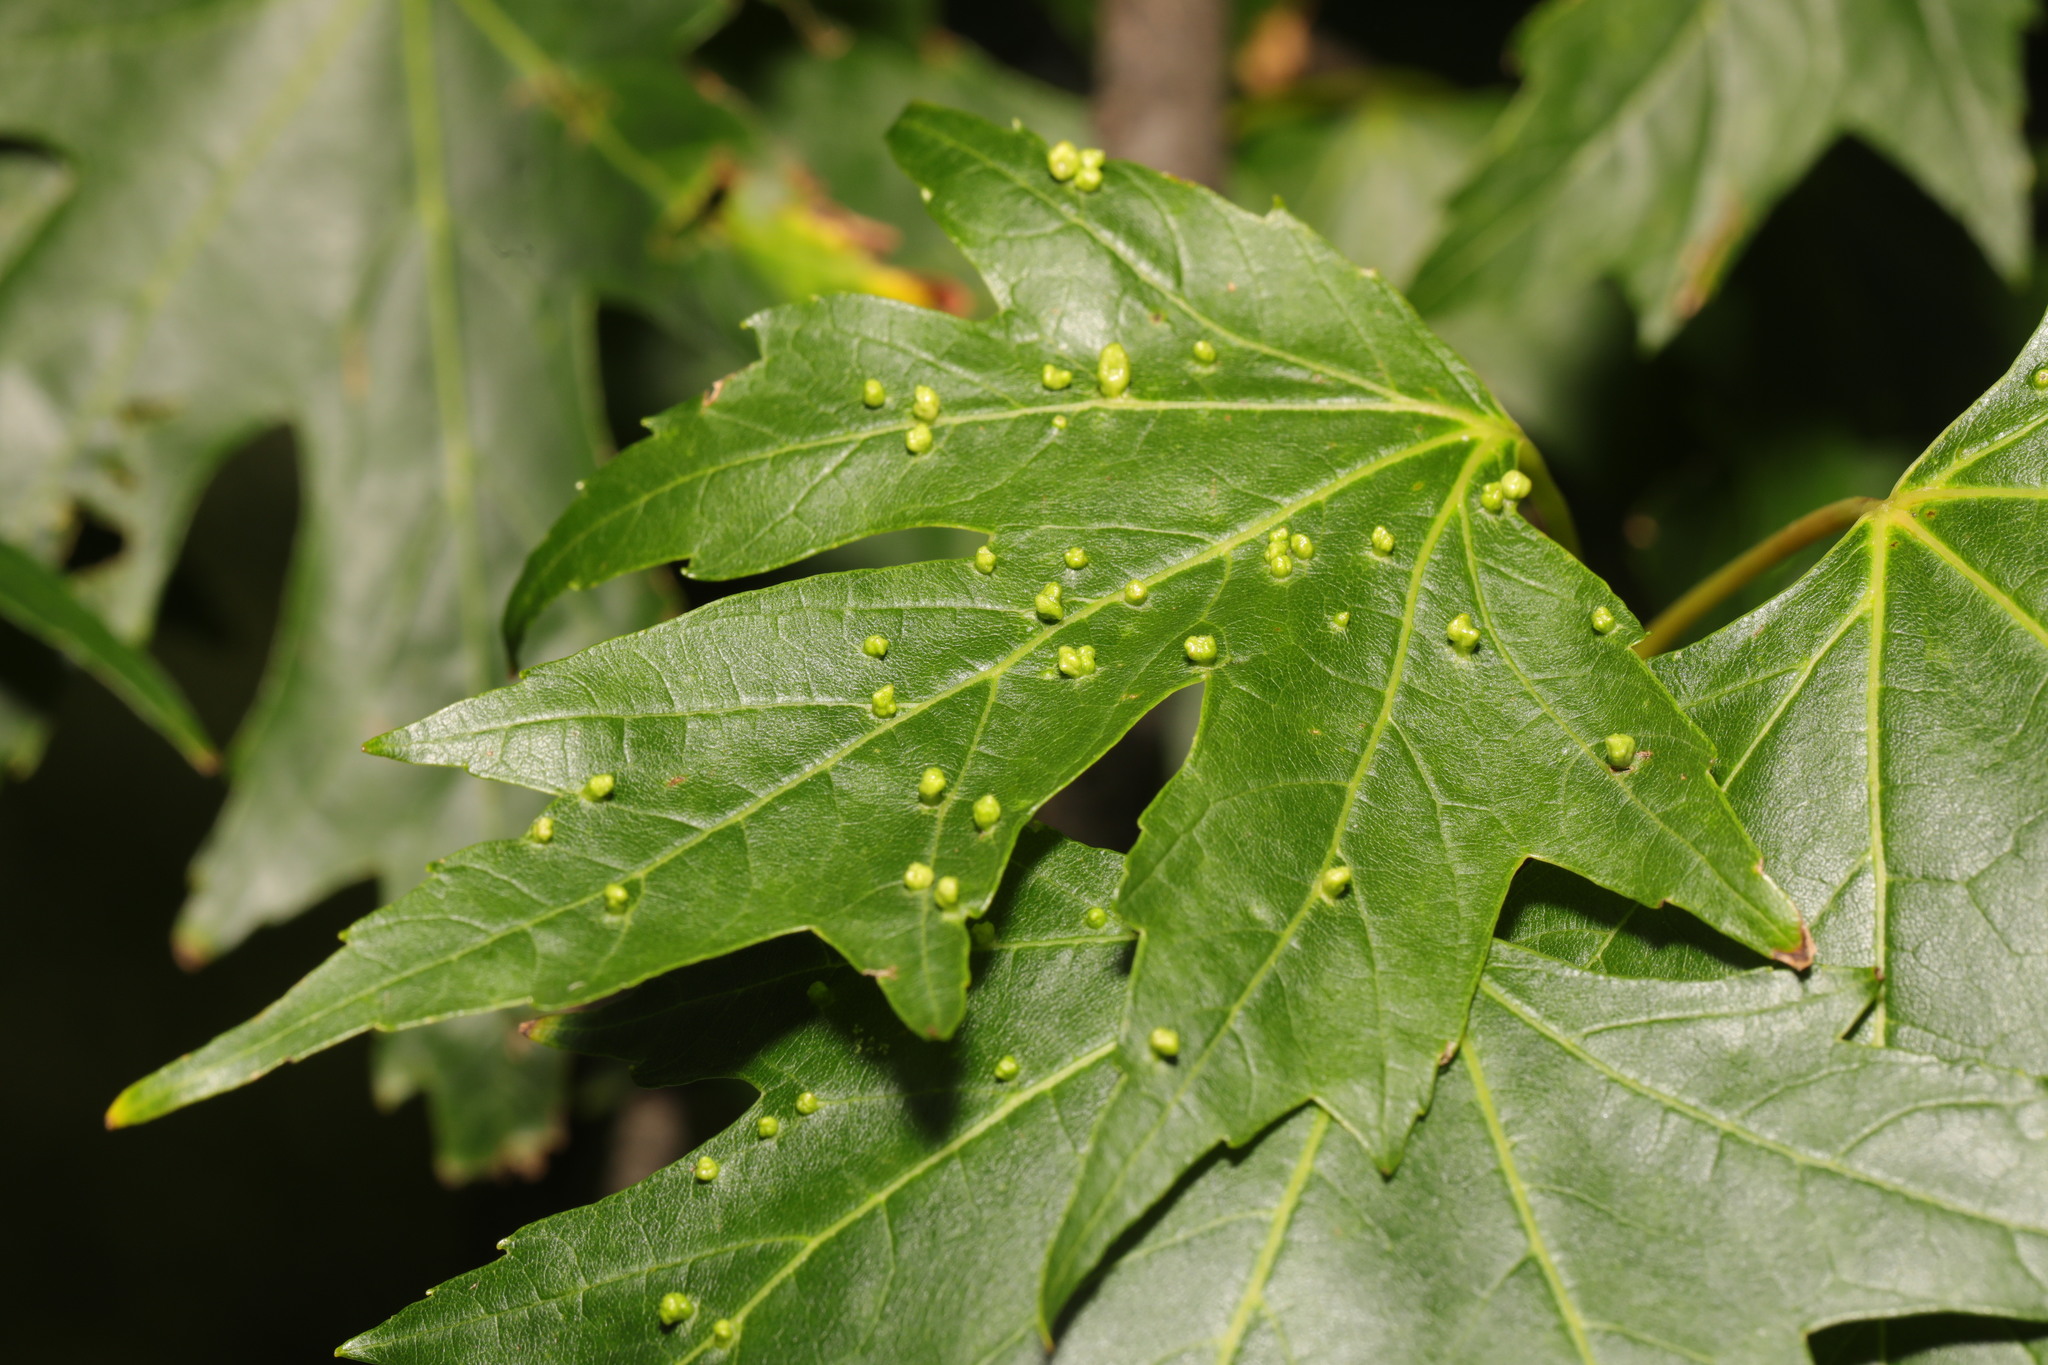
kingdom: Animalia
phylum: Arthropoda
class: Arachnida
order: Trombidiformes
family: Eriophyidae
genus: Vasates
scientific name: Vasates quadripedes
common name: Maple bladder gall mite
